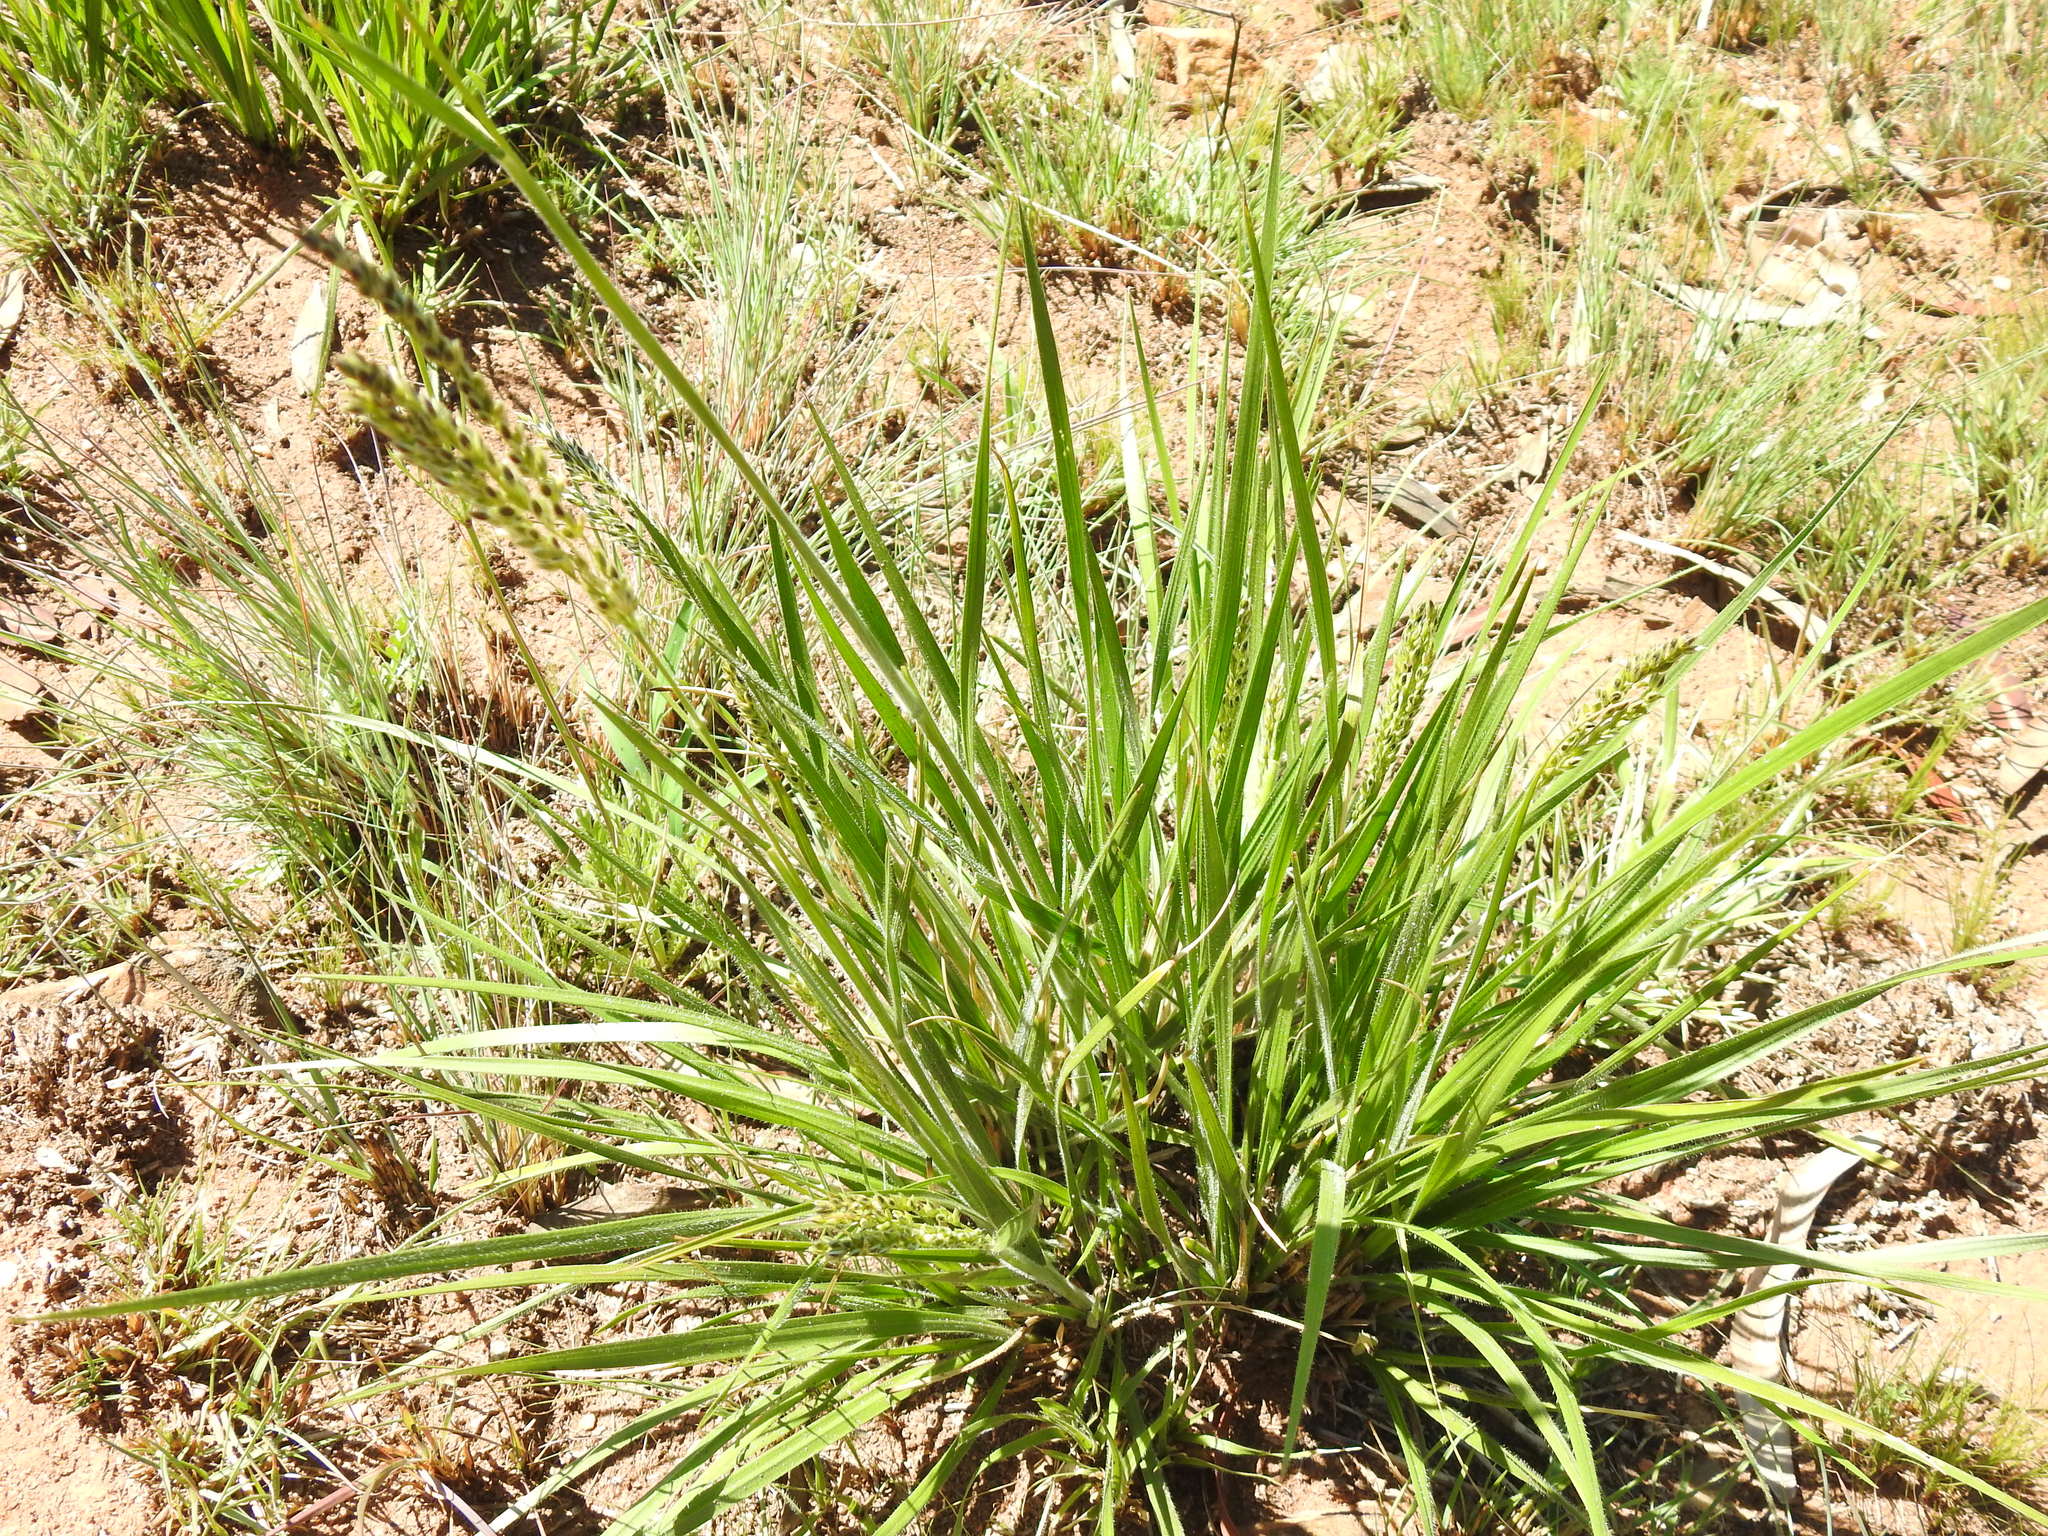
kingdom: Plantae
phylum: Tracheophyta
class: Liliopsida
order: Poales
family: Poaceae
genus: Alloteropsis
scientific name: Alloteropsis semialata
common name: Cockatoo grass
